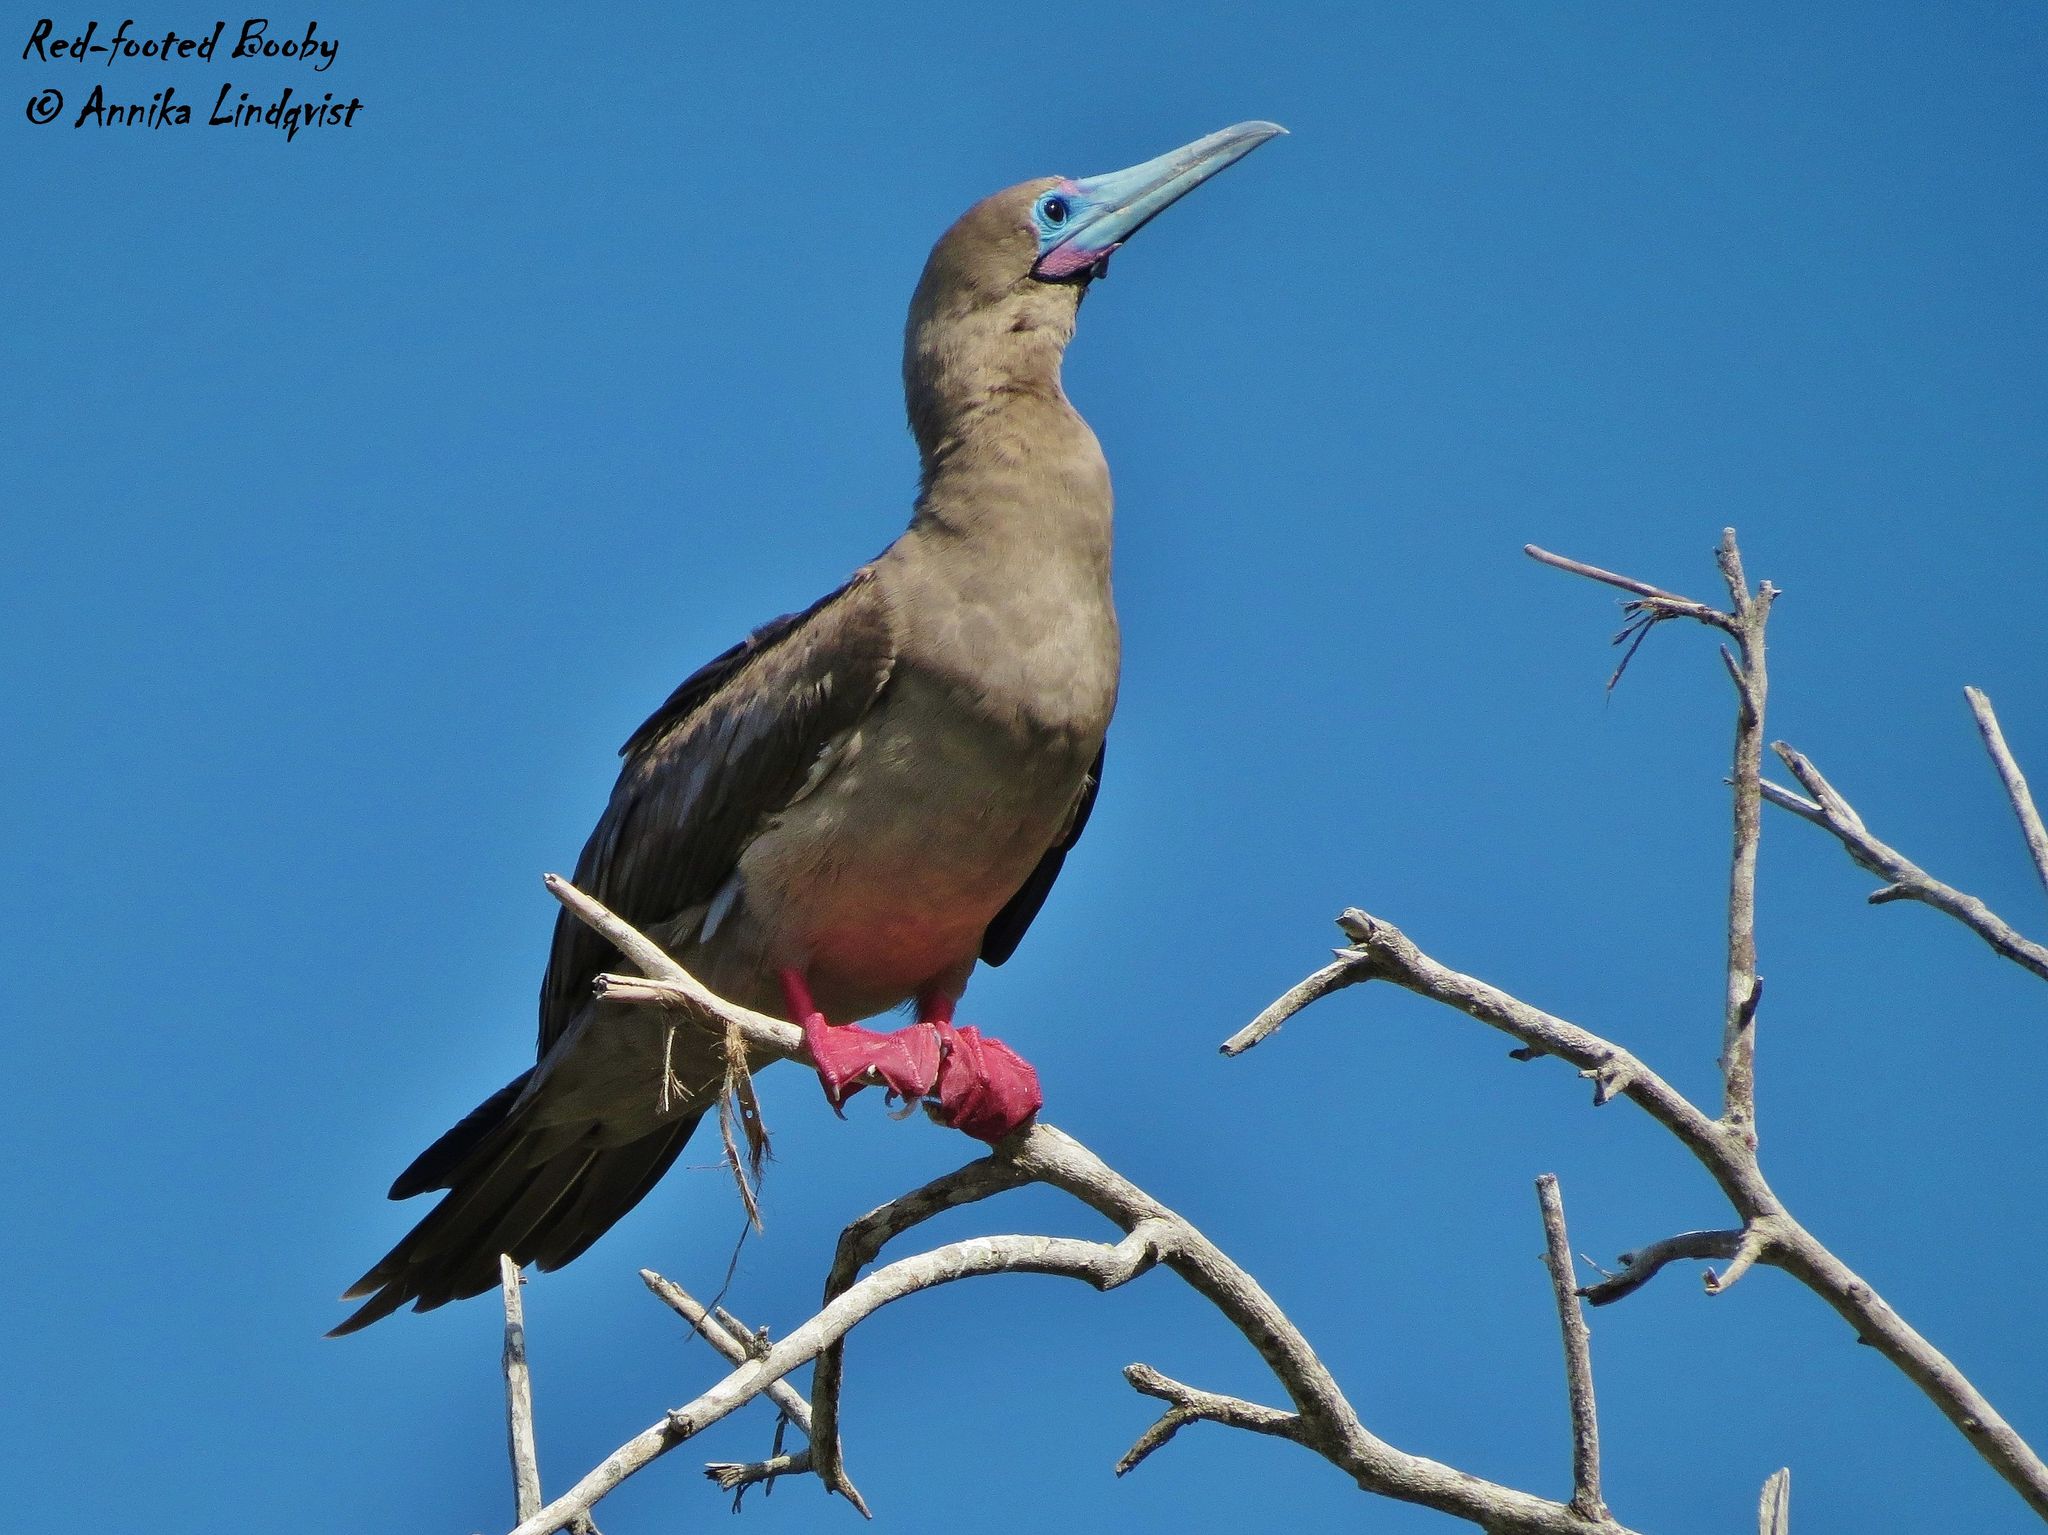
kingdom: Animalia
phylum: Chordata
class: Aves
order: Suliformes
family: Sulidae
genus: Sula
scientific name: Sula sula
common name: Red-footed booby
